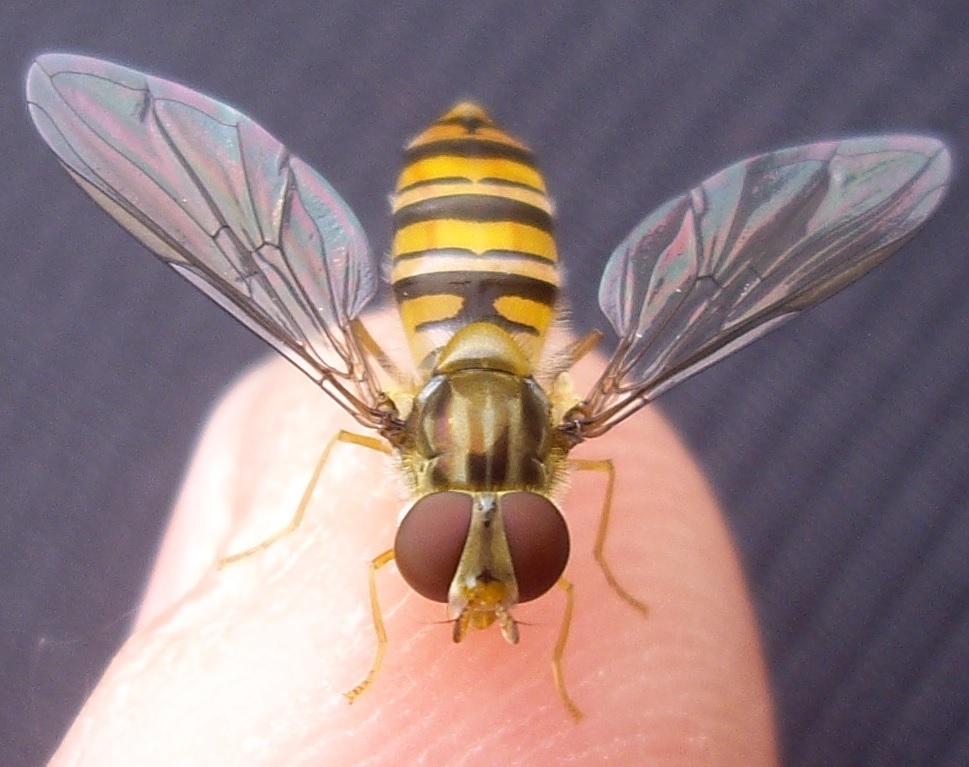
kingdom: Animalia
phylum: Arthropoda
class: Insecta
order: Diptera
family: Syrphidae
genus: Episyrphus
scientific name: Episyrphus balteatus
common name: Marmalade hoverfly
